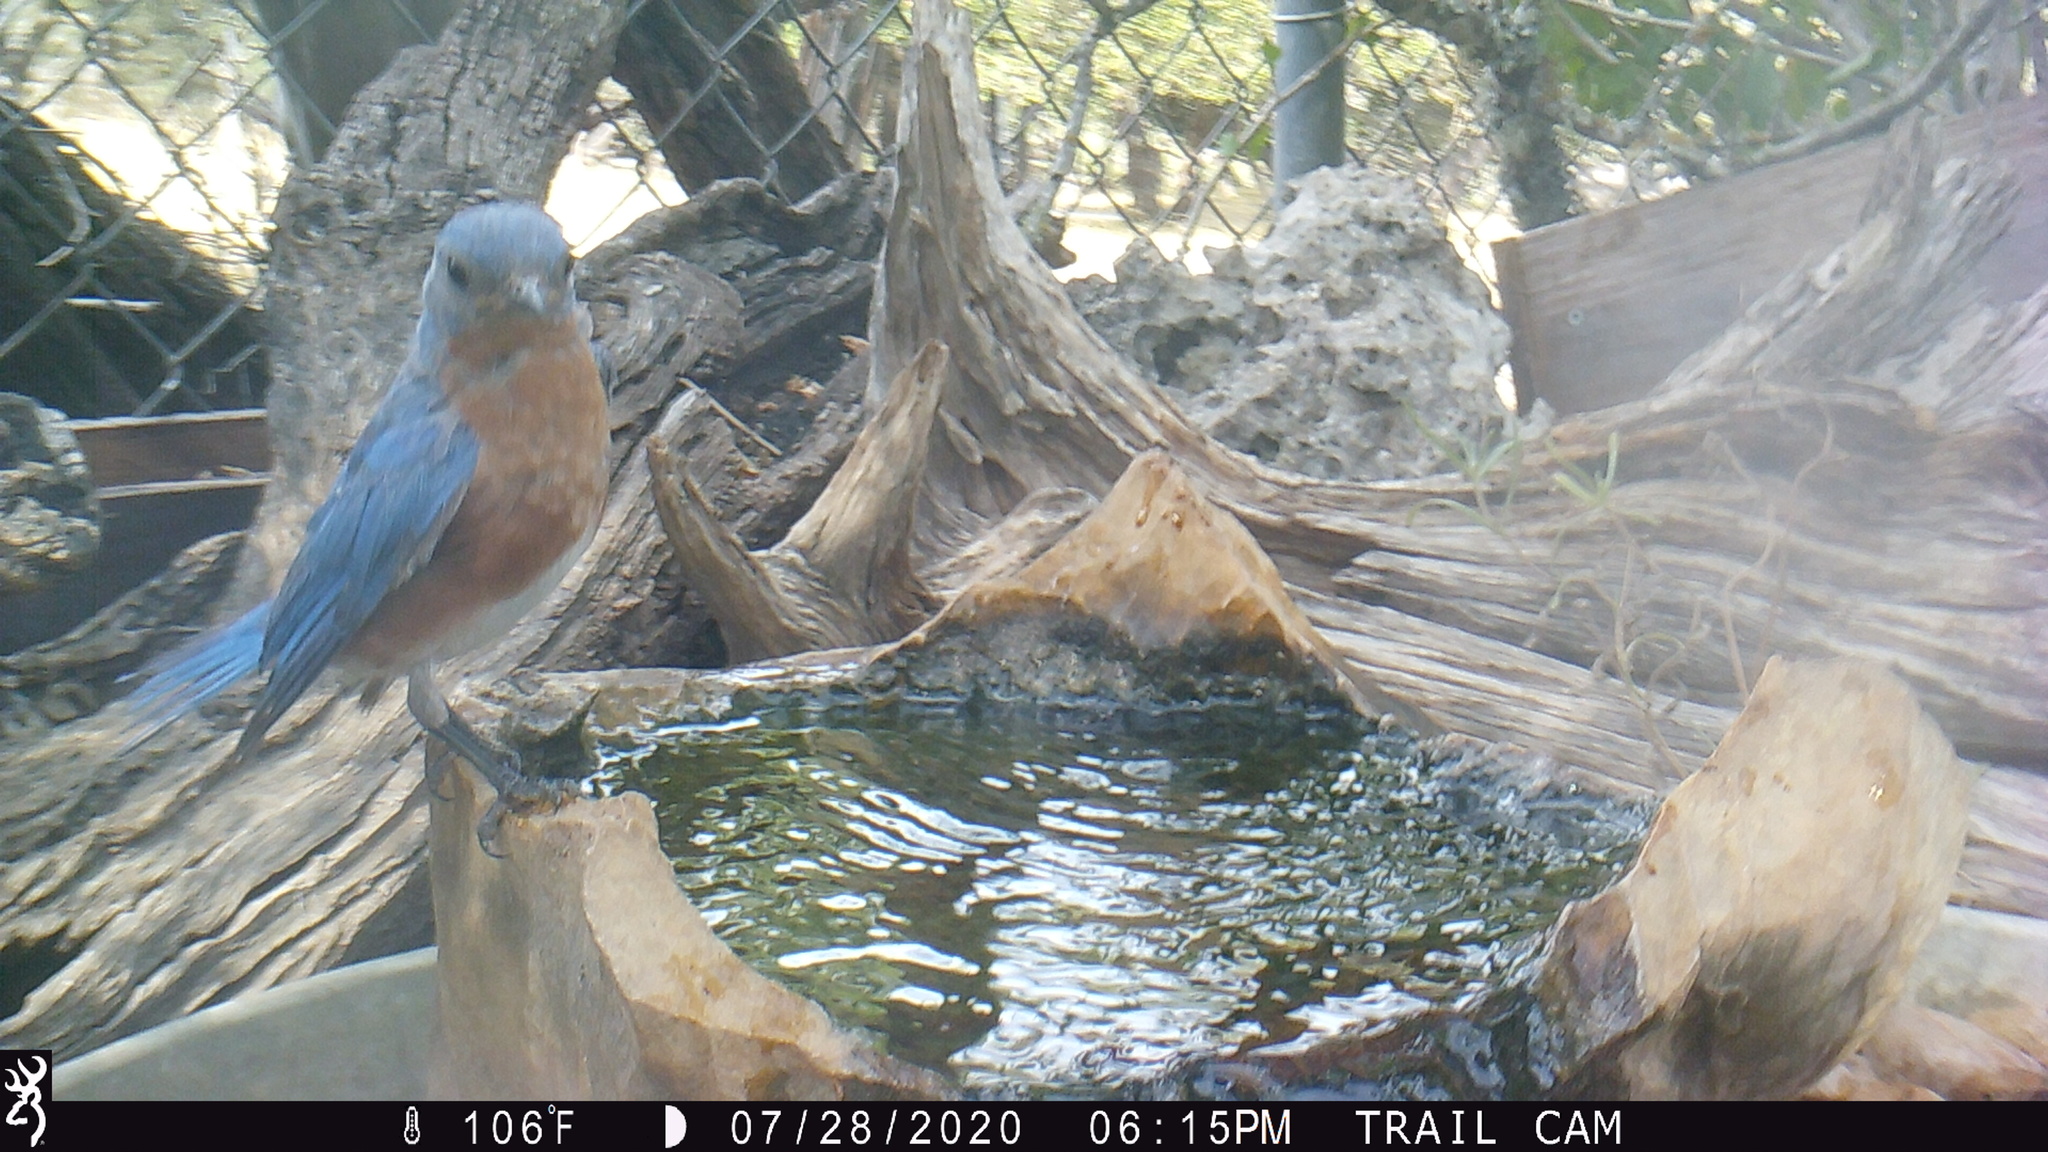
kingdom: Animalia
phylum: Chordata
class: Aves
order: Passeriformes
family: Turdidae
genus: Sialia
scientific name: Sialia sialis
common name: Eastern bluebird
